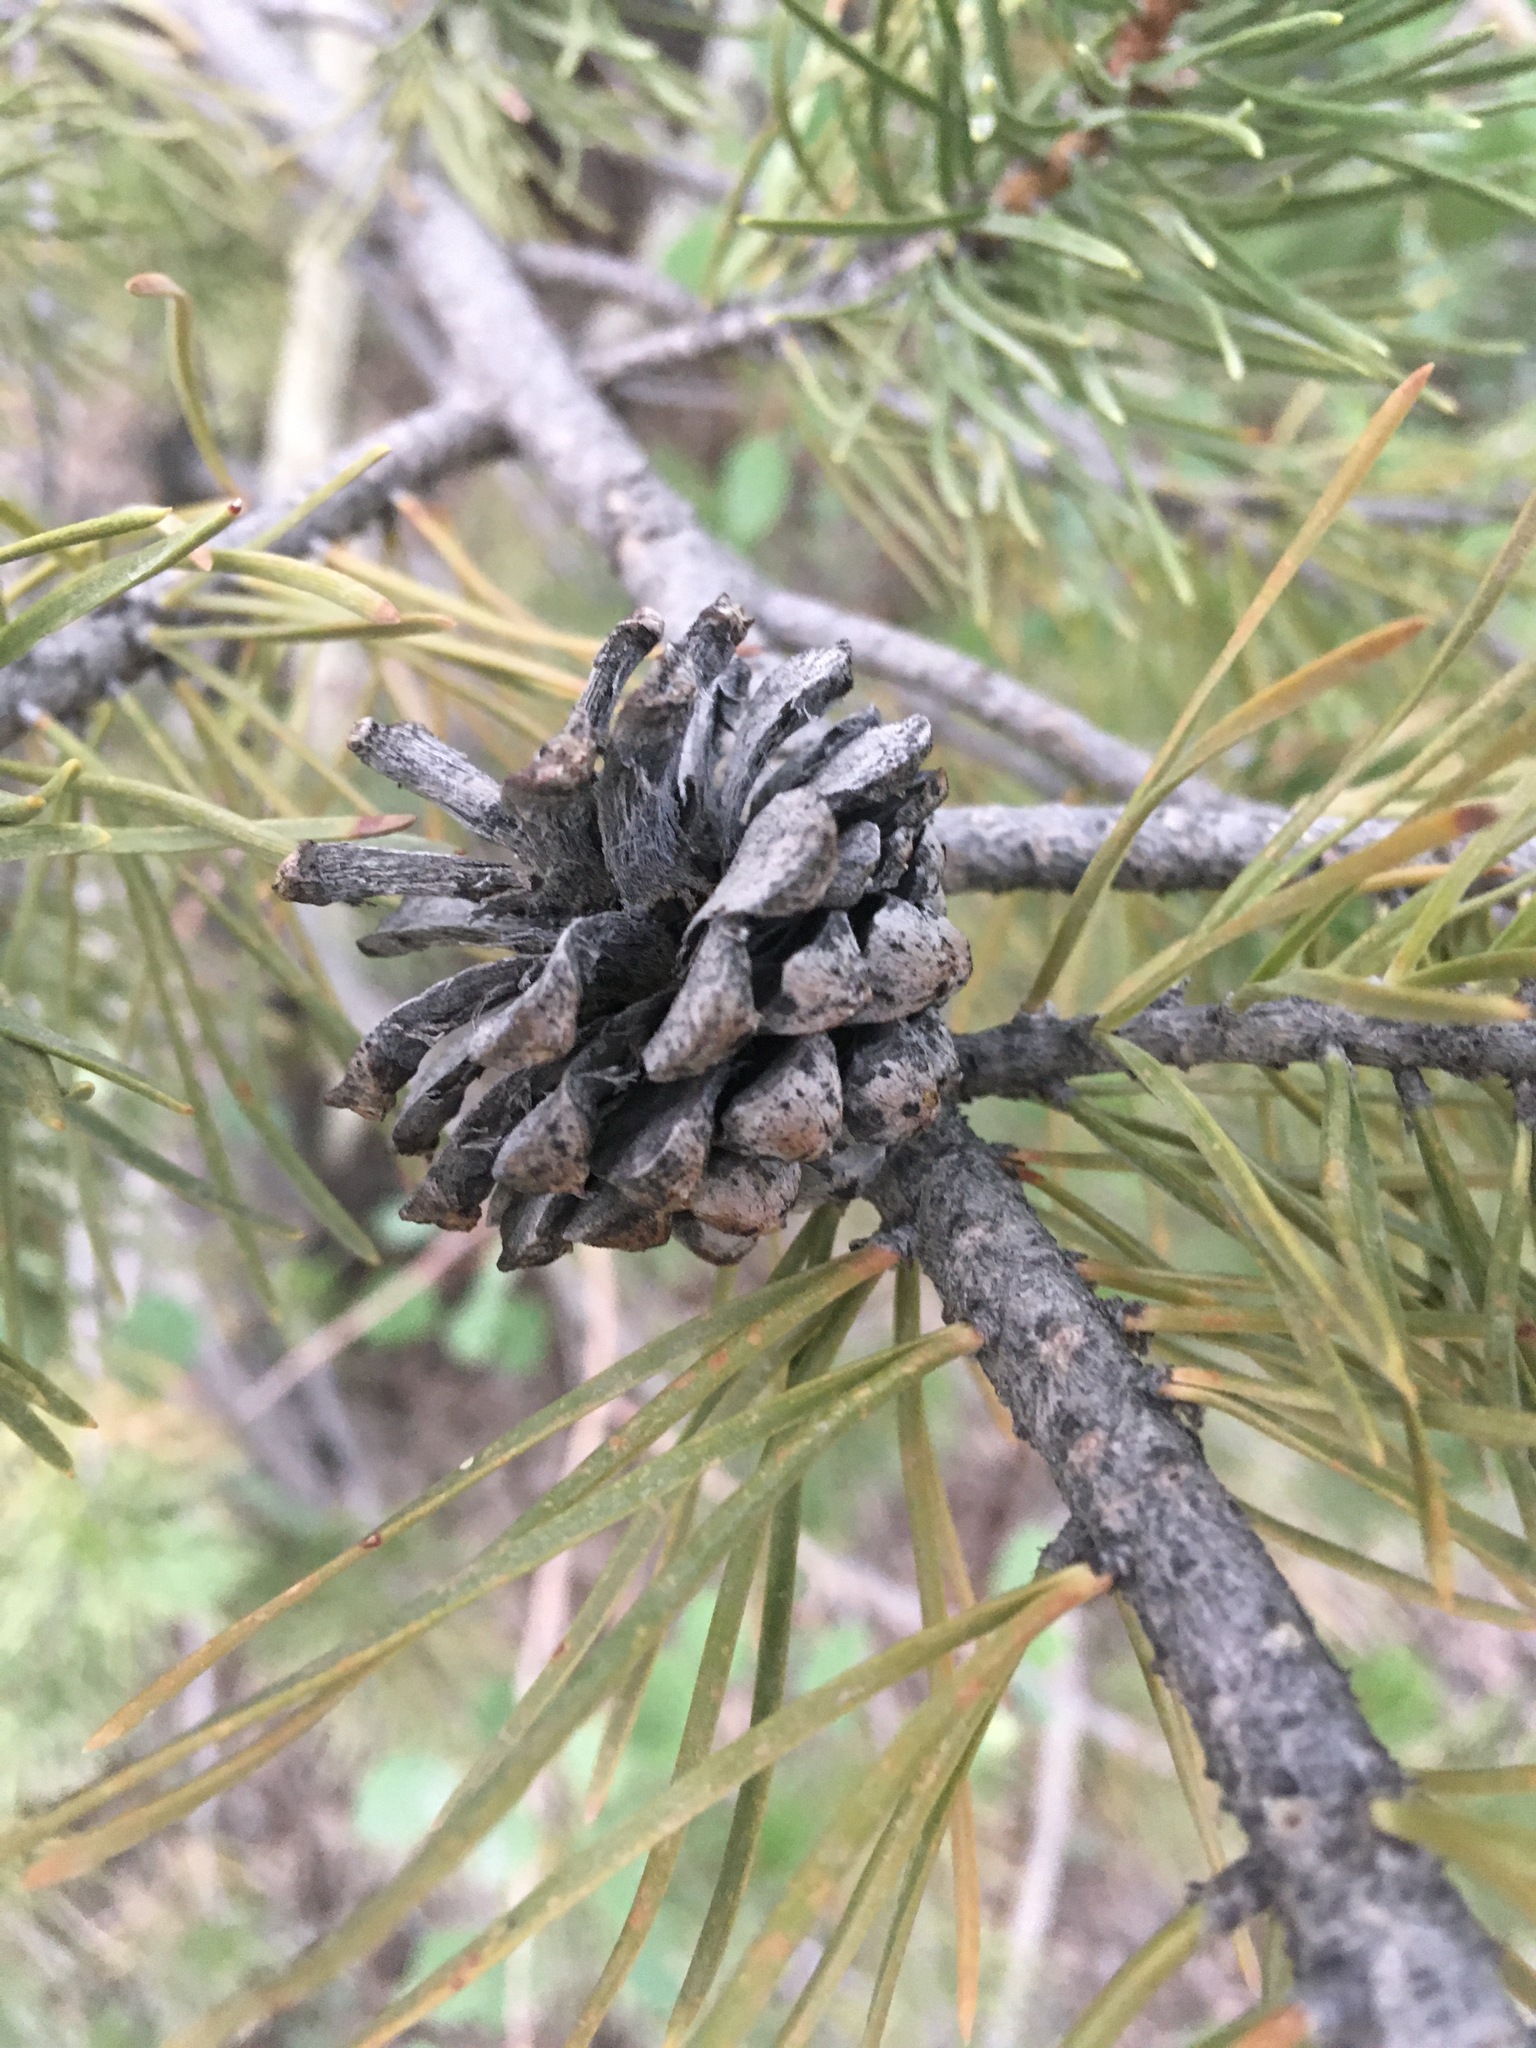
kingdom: Plantae
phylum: Tracheophyta
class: Pinopsida
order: Pinales
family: Pinaceae
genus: Pinus
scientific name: Pinus contorta
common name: Lodgepole pine
